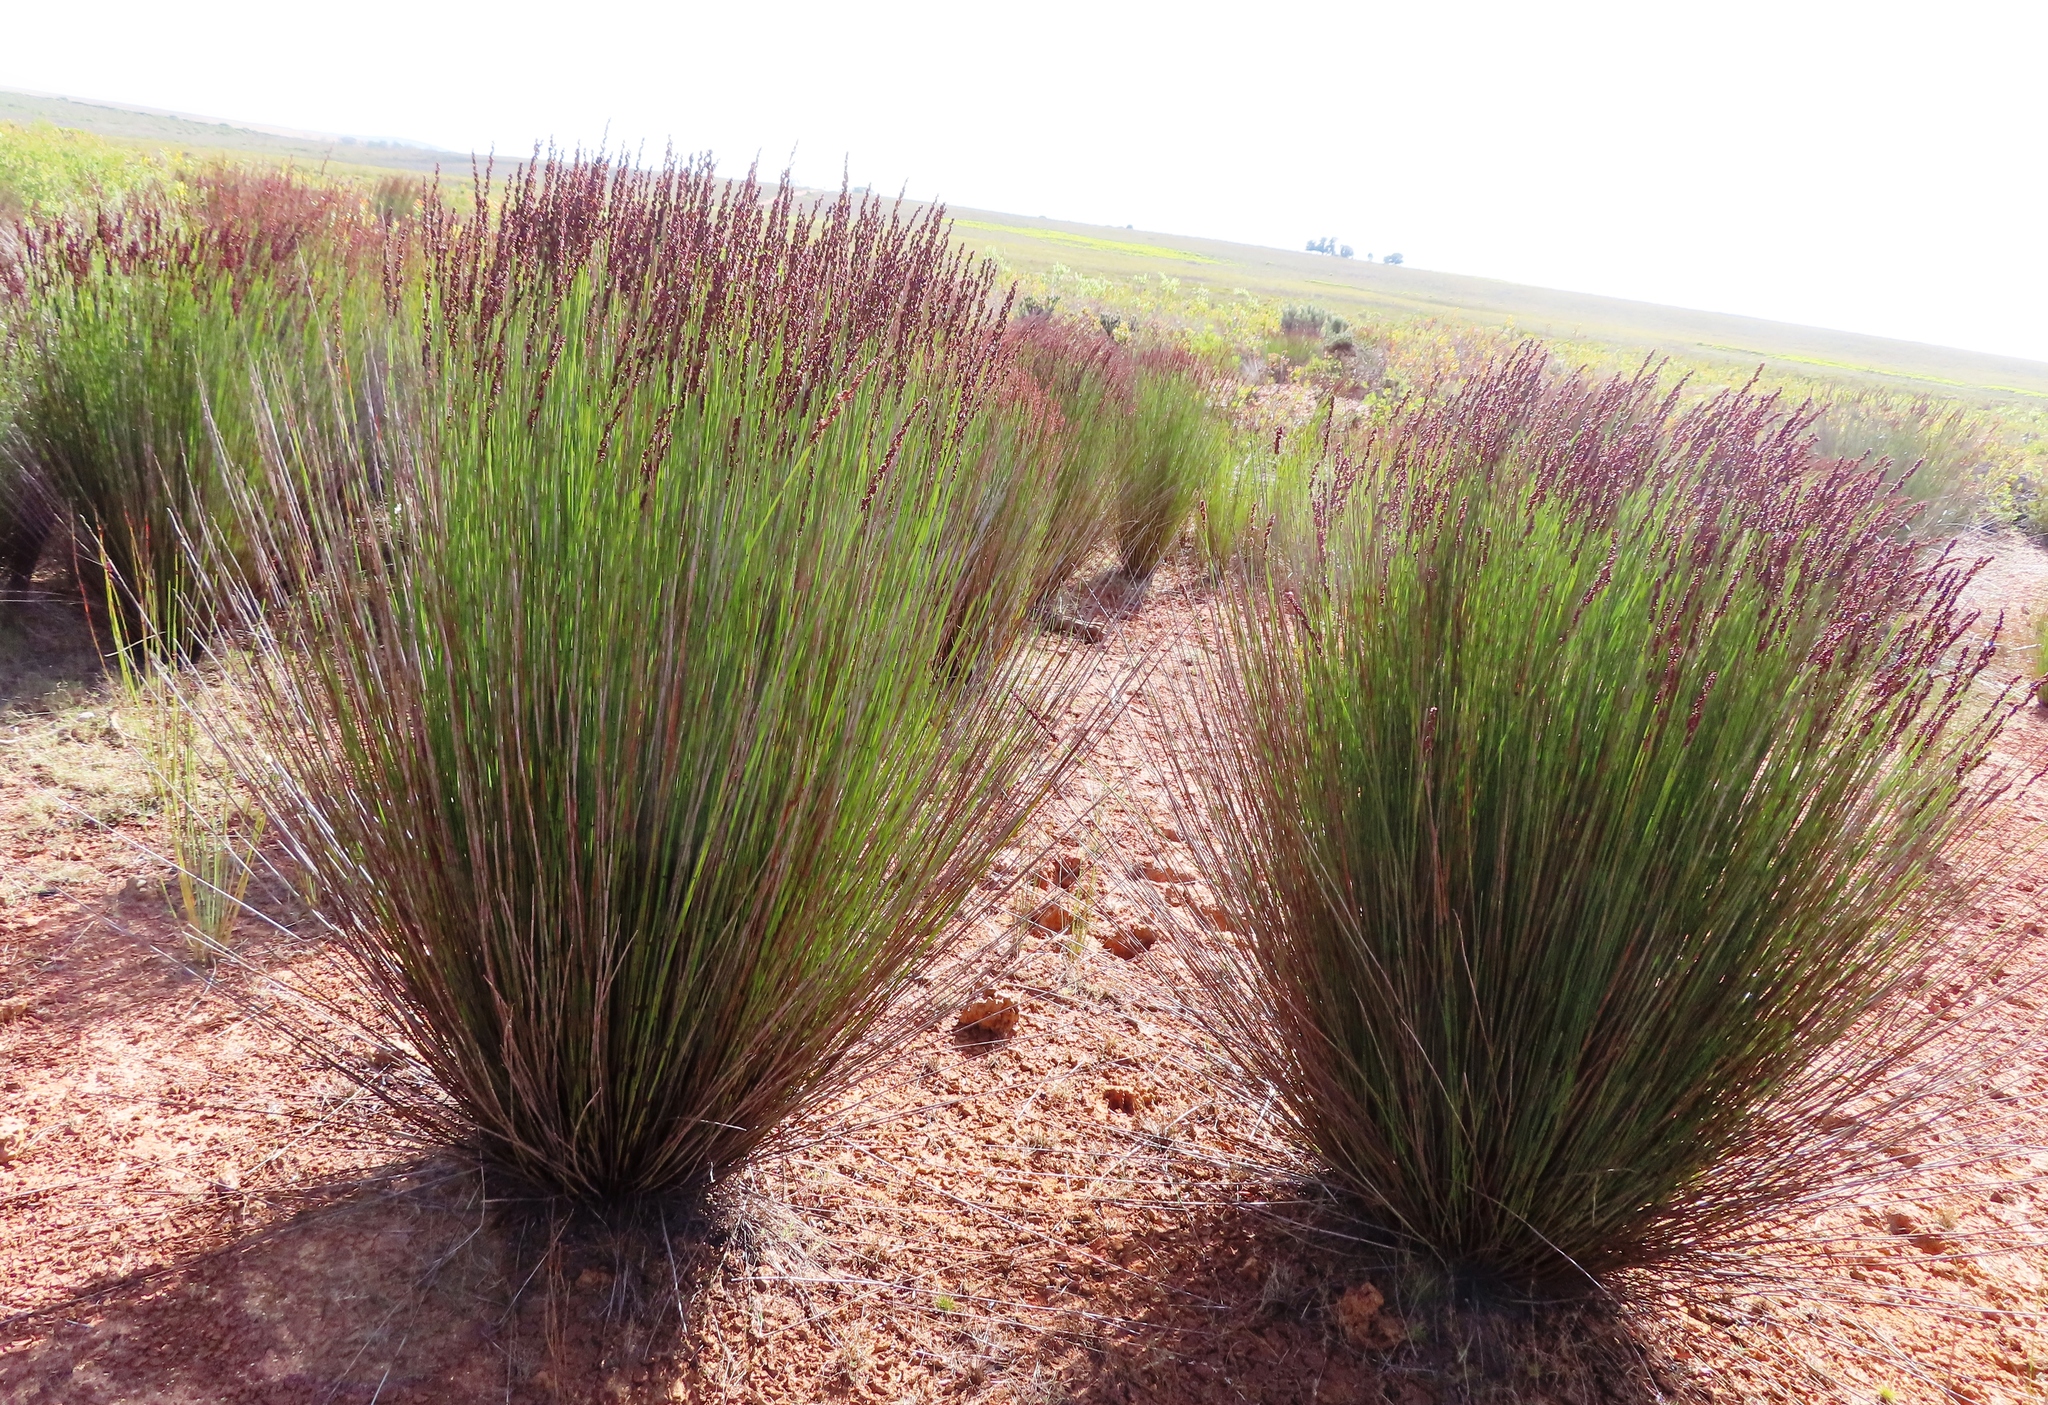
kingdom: Plantae
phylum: Tracheophyta
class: Liliopsida
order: Poales
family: Restionaceae
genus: Elegia
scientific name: Elegia tectorum
